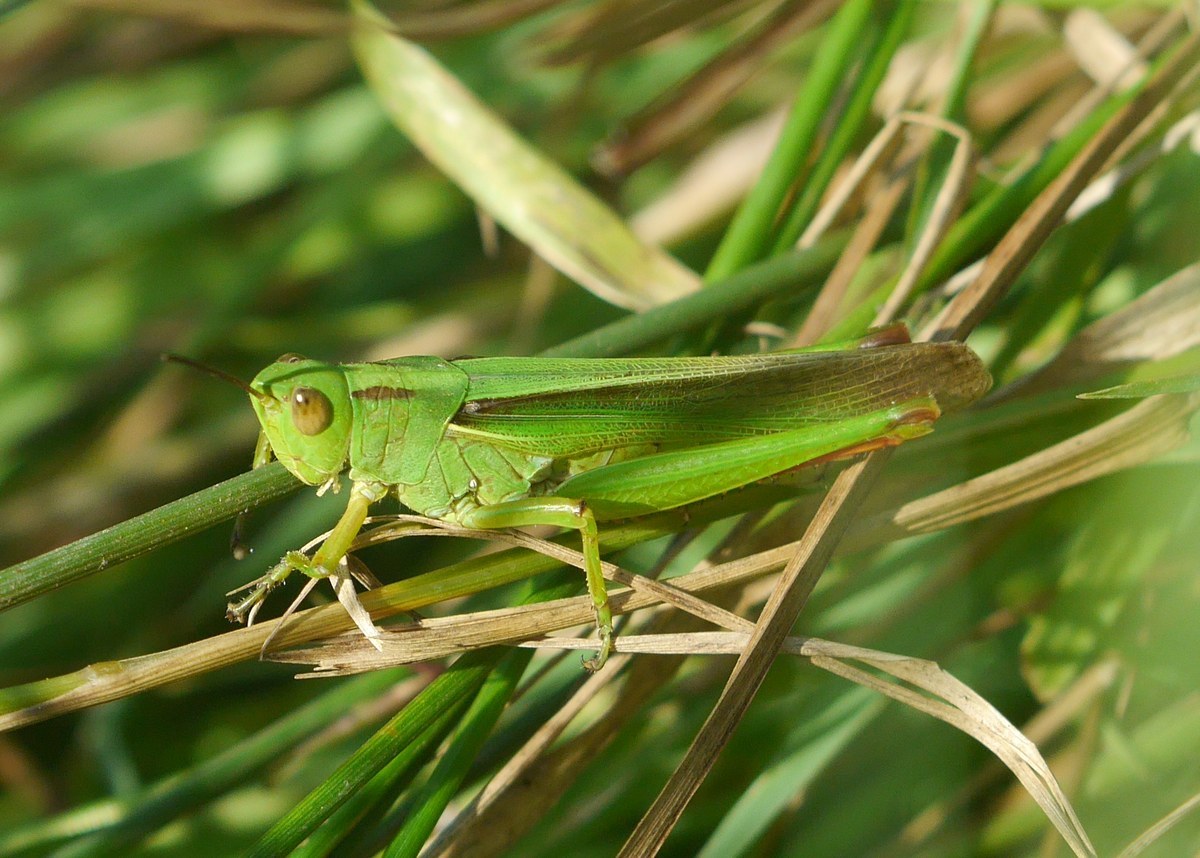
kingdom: Animalia
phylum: Arthropoda
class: Insecta
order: Orthoptera
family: Acrididae
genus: Paracinema
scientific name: Paracinema tricolor
